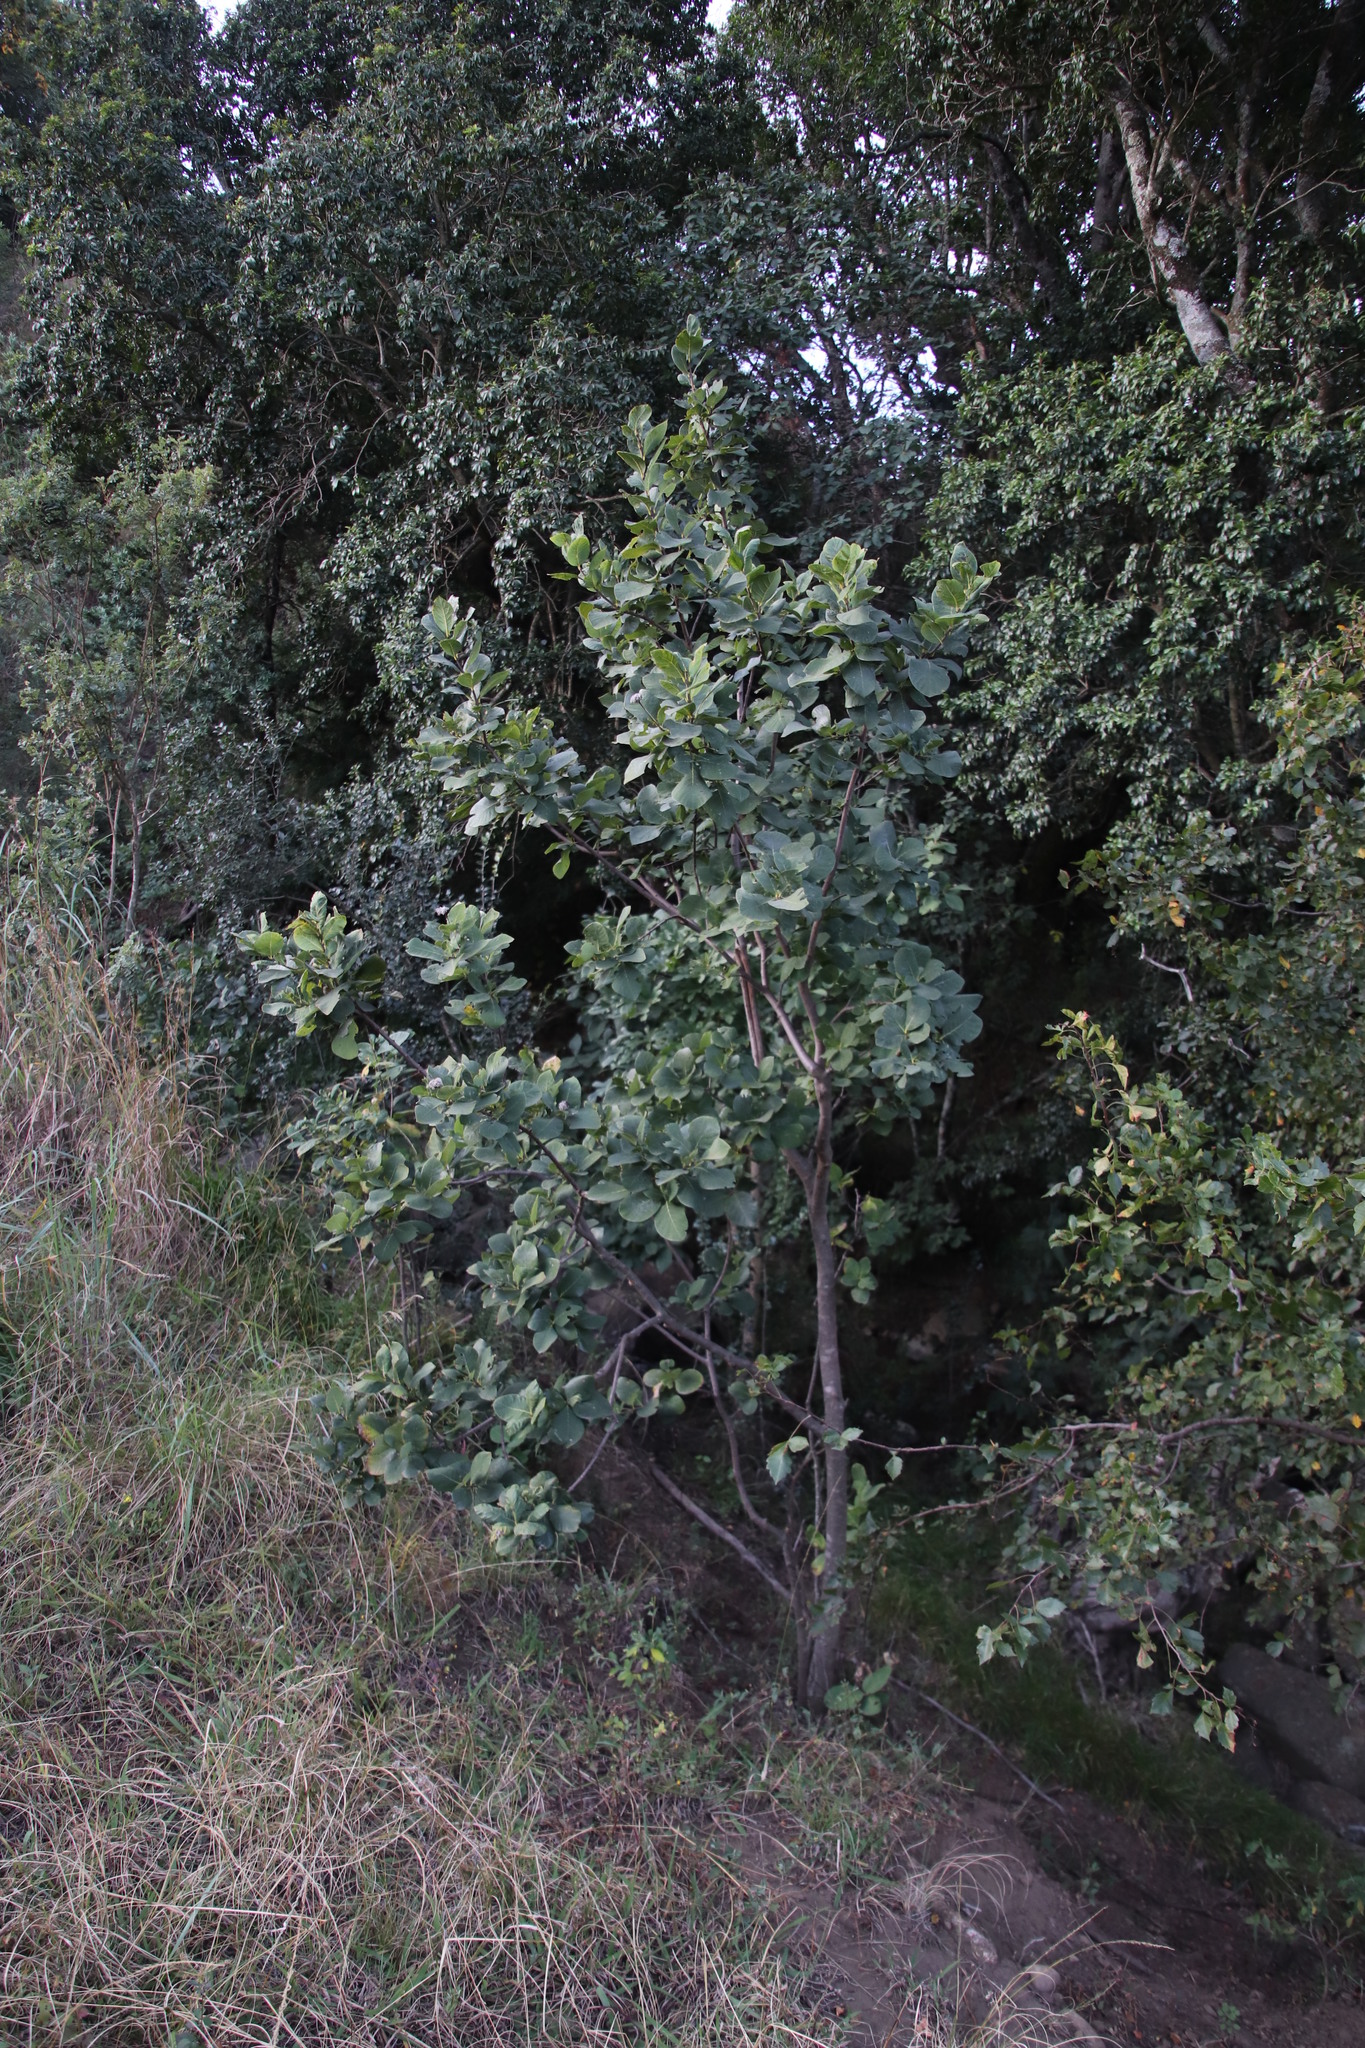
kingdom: Plantae
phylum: Tracheophyta
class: Magnoliopsida
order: Malvales
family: Thymelaeaceae
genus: Dais
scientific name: Dais cotinifolia
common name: Pompon tree
